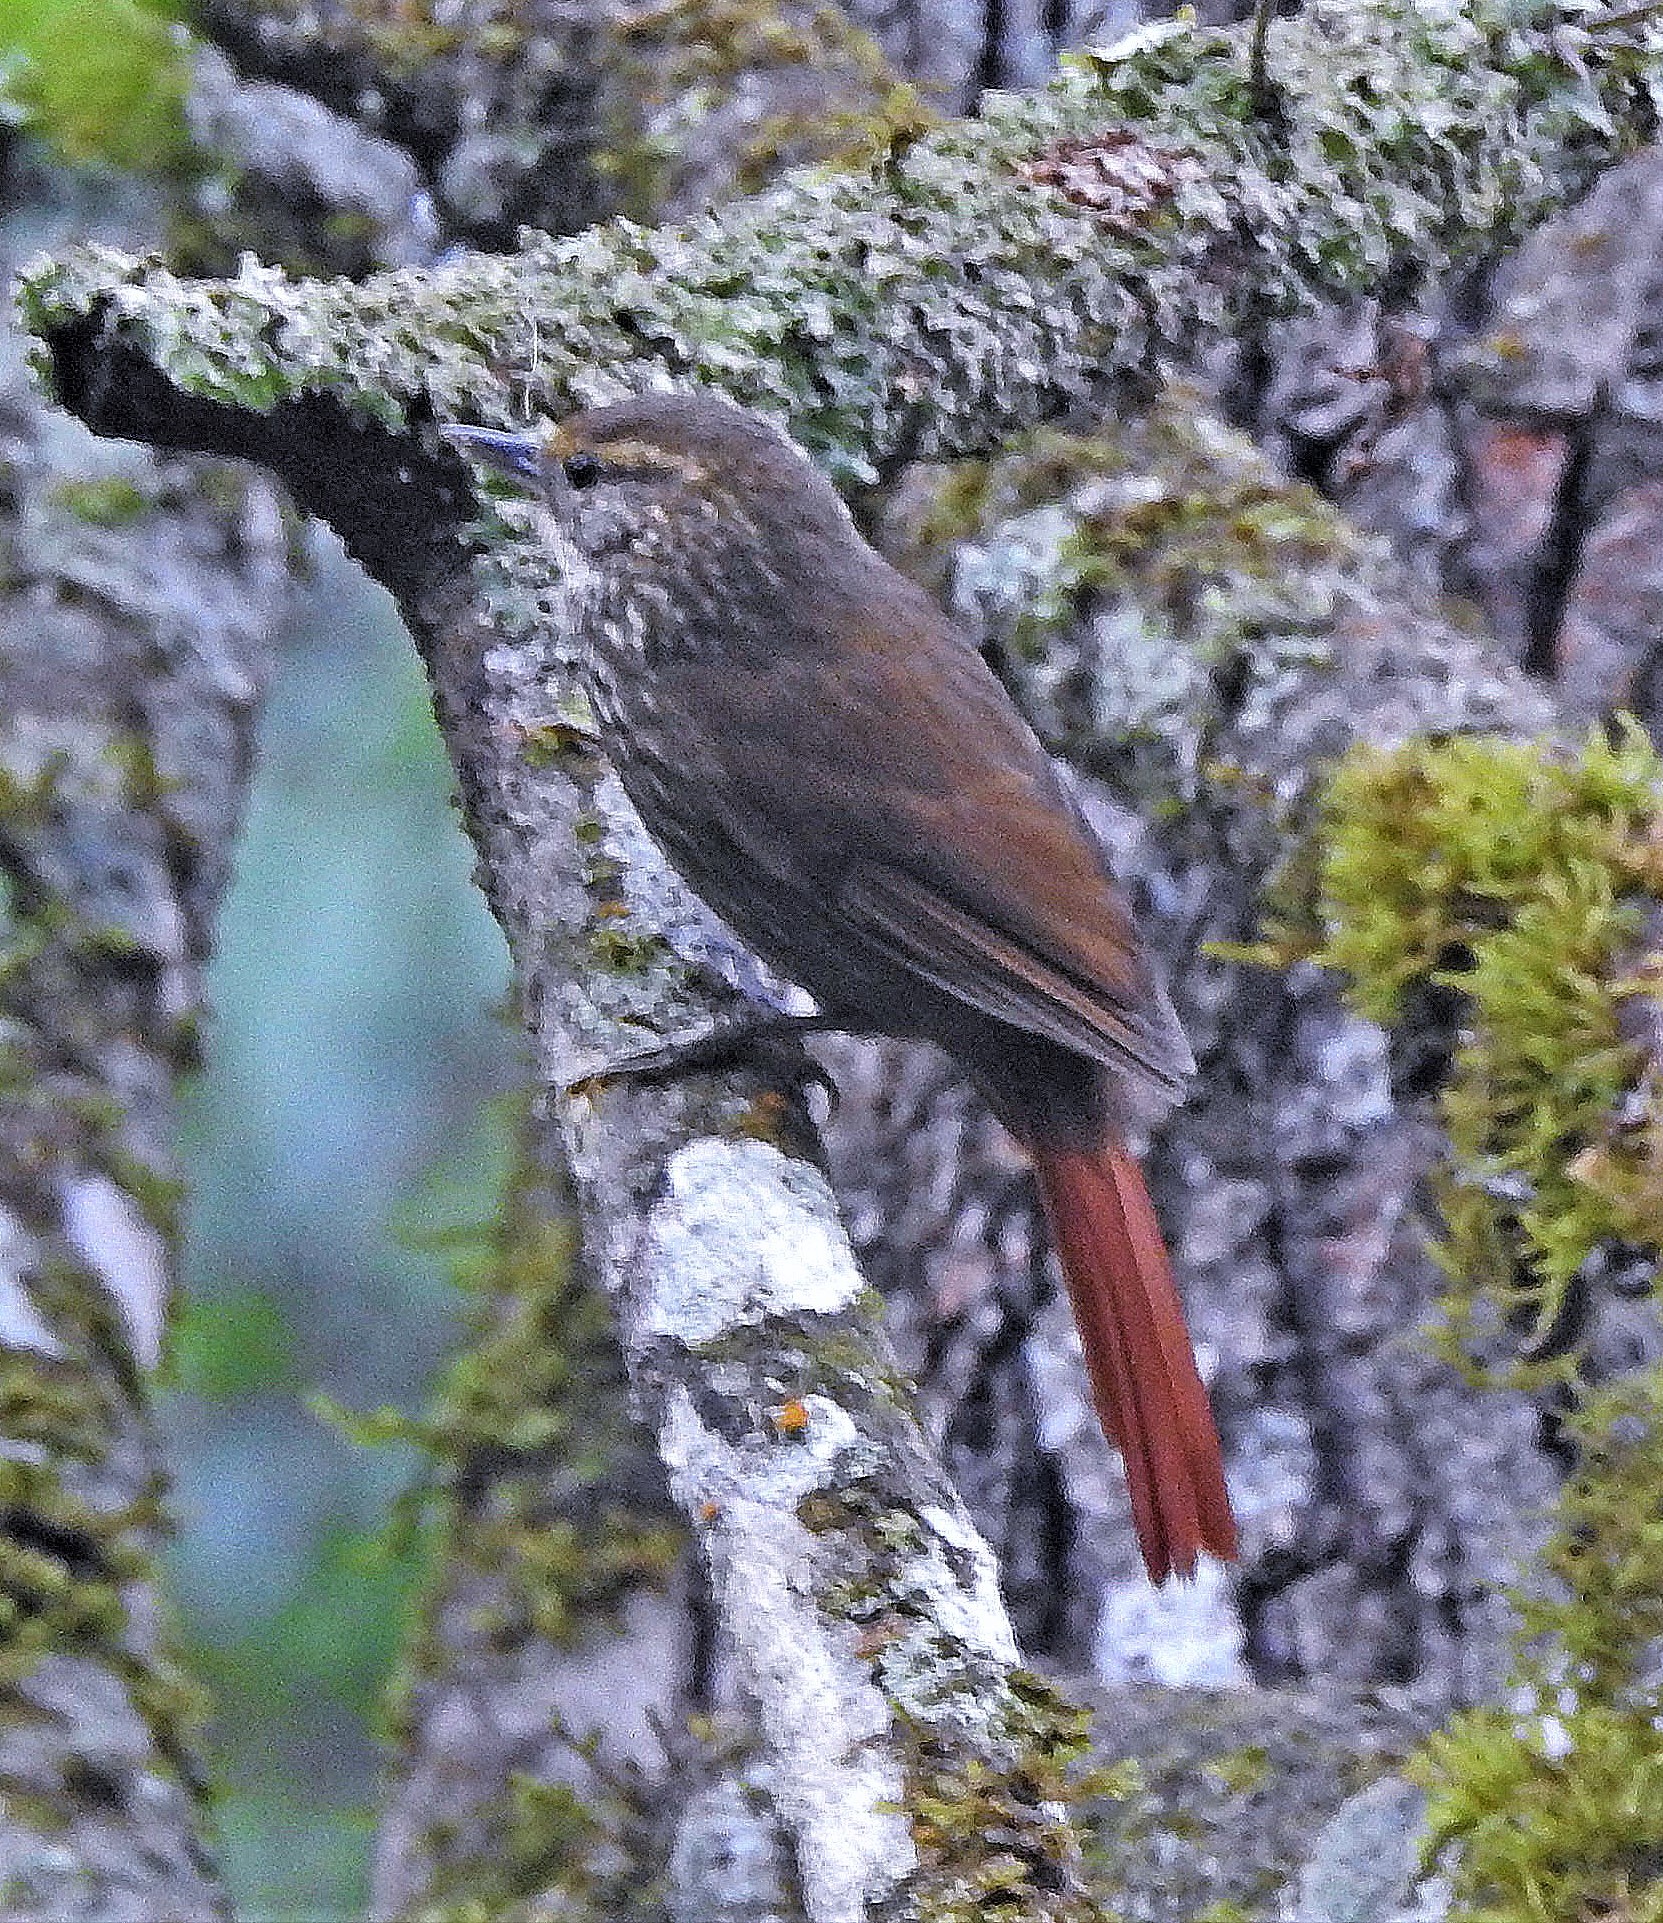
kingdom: Animalia
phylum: Chordata
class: Aves
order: Passeriformes
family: Furnariidae
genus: Syndactyla
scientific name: Syndactyla rufosuperciliata
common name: Buff-browed foliage-gleaner
